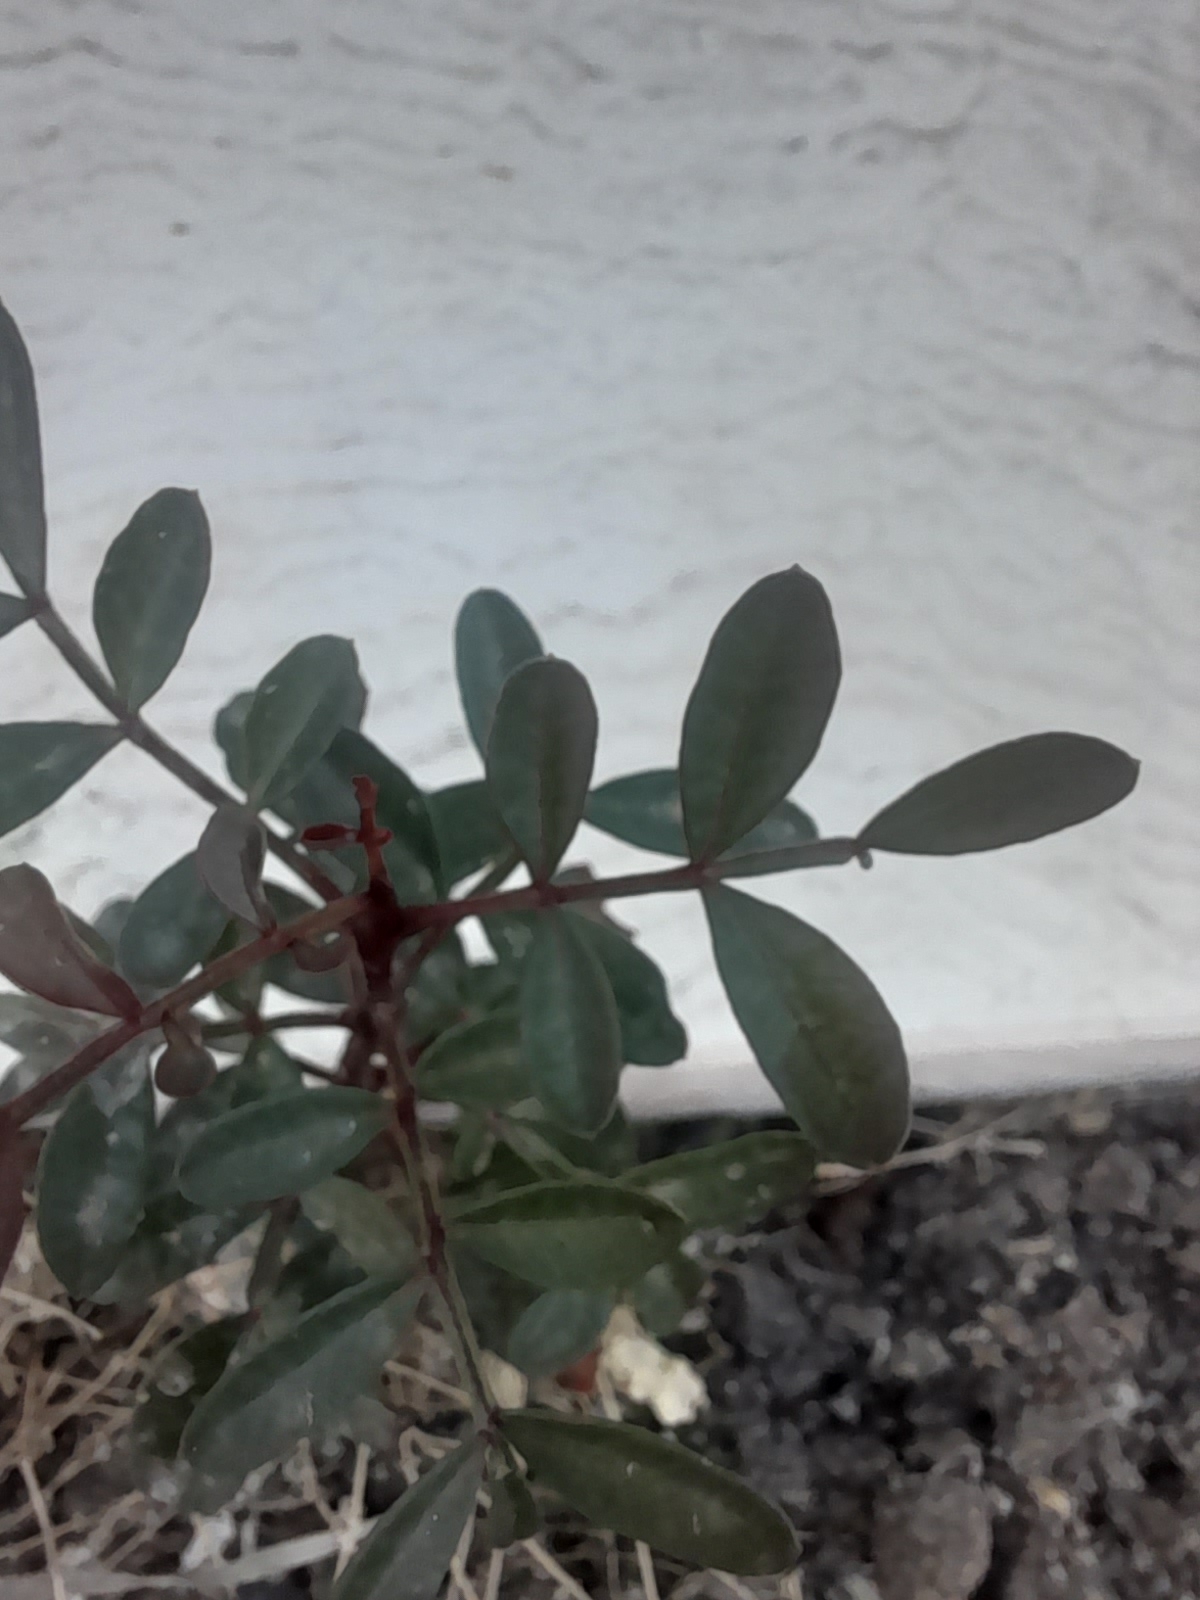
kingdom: Plantae
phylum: Tracheophyta
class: Magnoliopsida
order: Sapindales
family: Anacardiaceae
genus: Pistacia
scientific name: Pistacia lentiscus
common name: Lentisk
